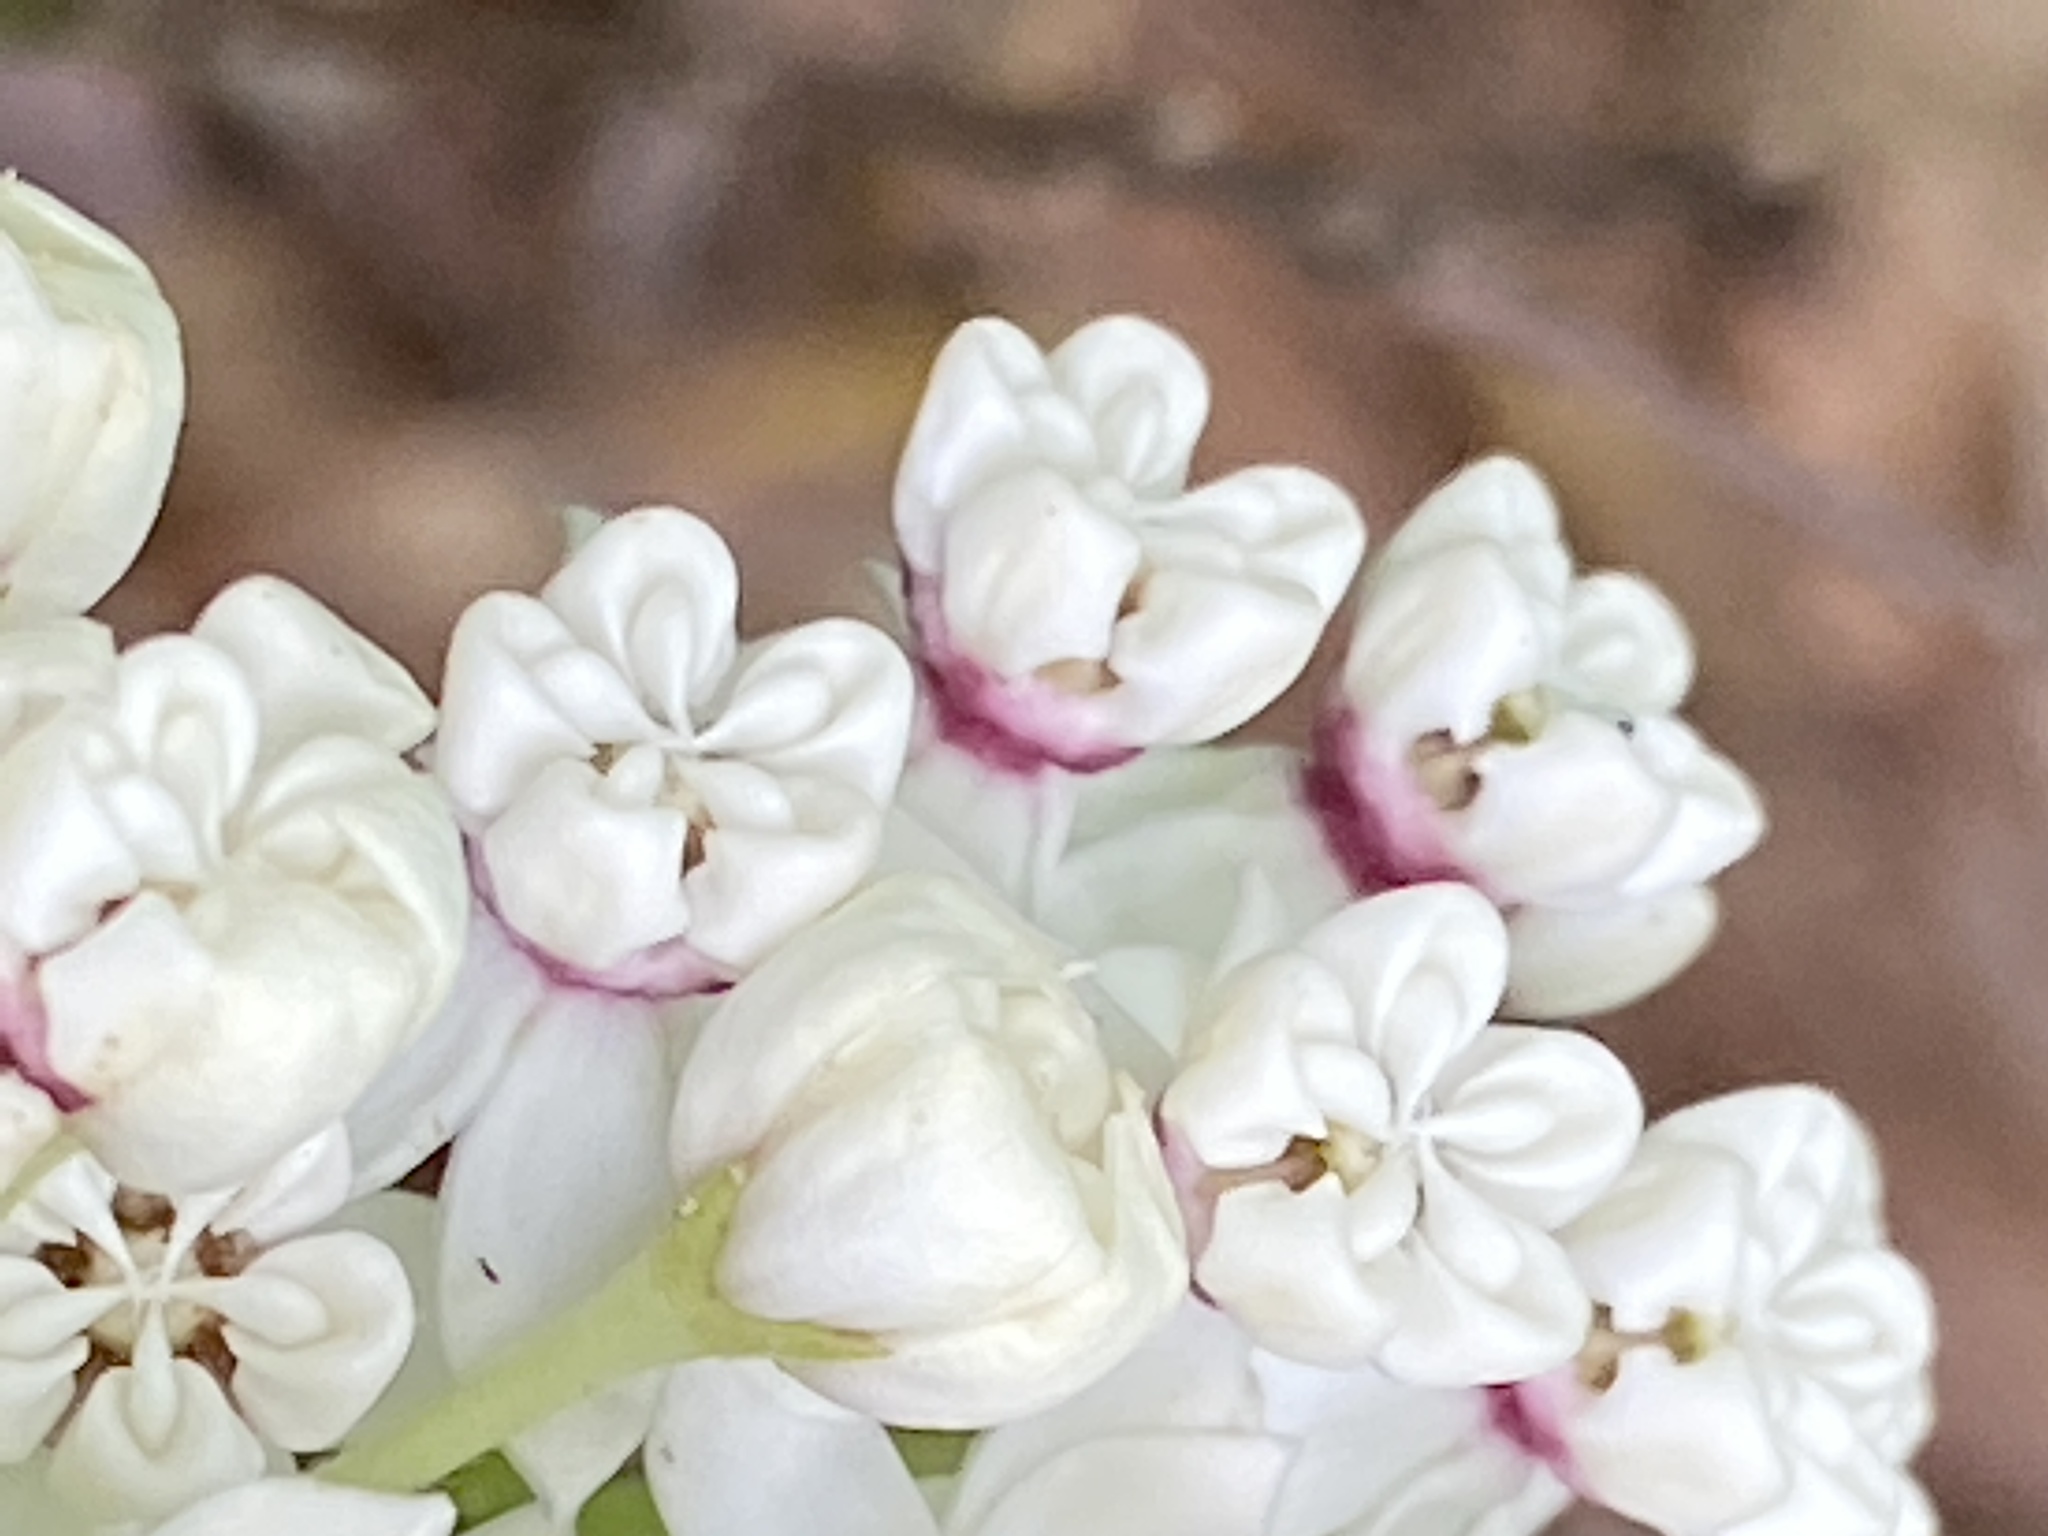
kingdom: Plantae
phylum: Tracheophyta
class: Magnoliopsida
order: Gentianales
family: Apocynaceae
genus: Asclepias
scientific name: Asclepias variegata
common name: Variegated milkweed
